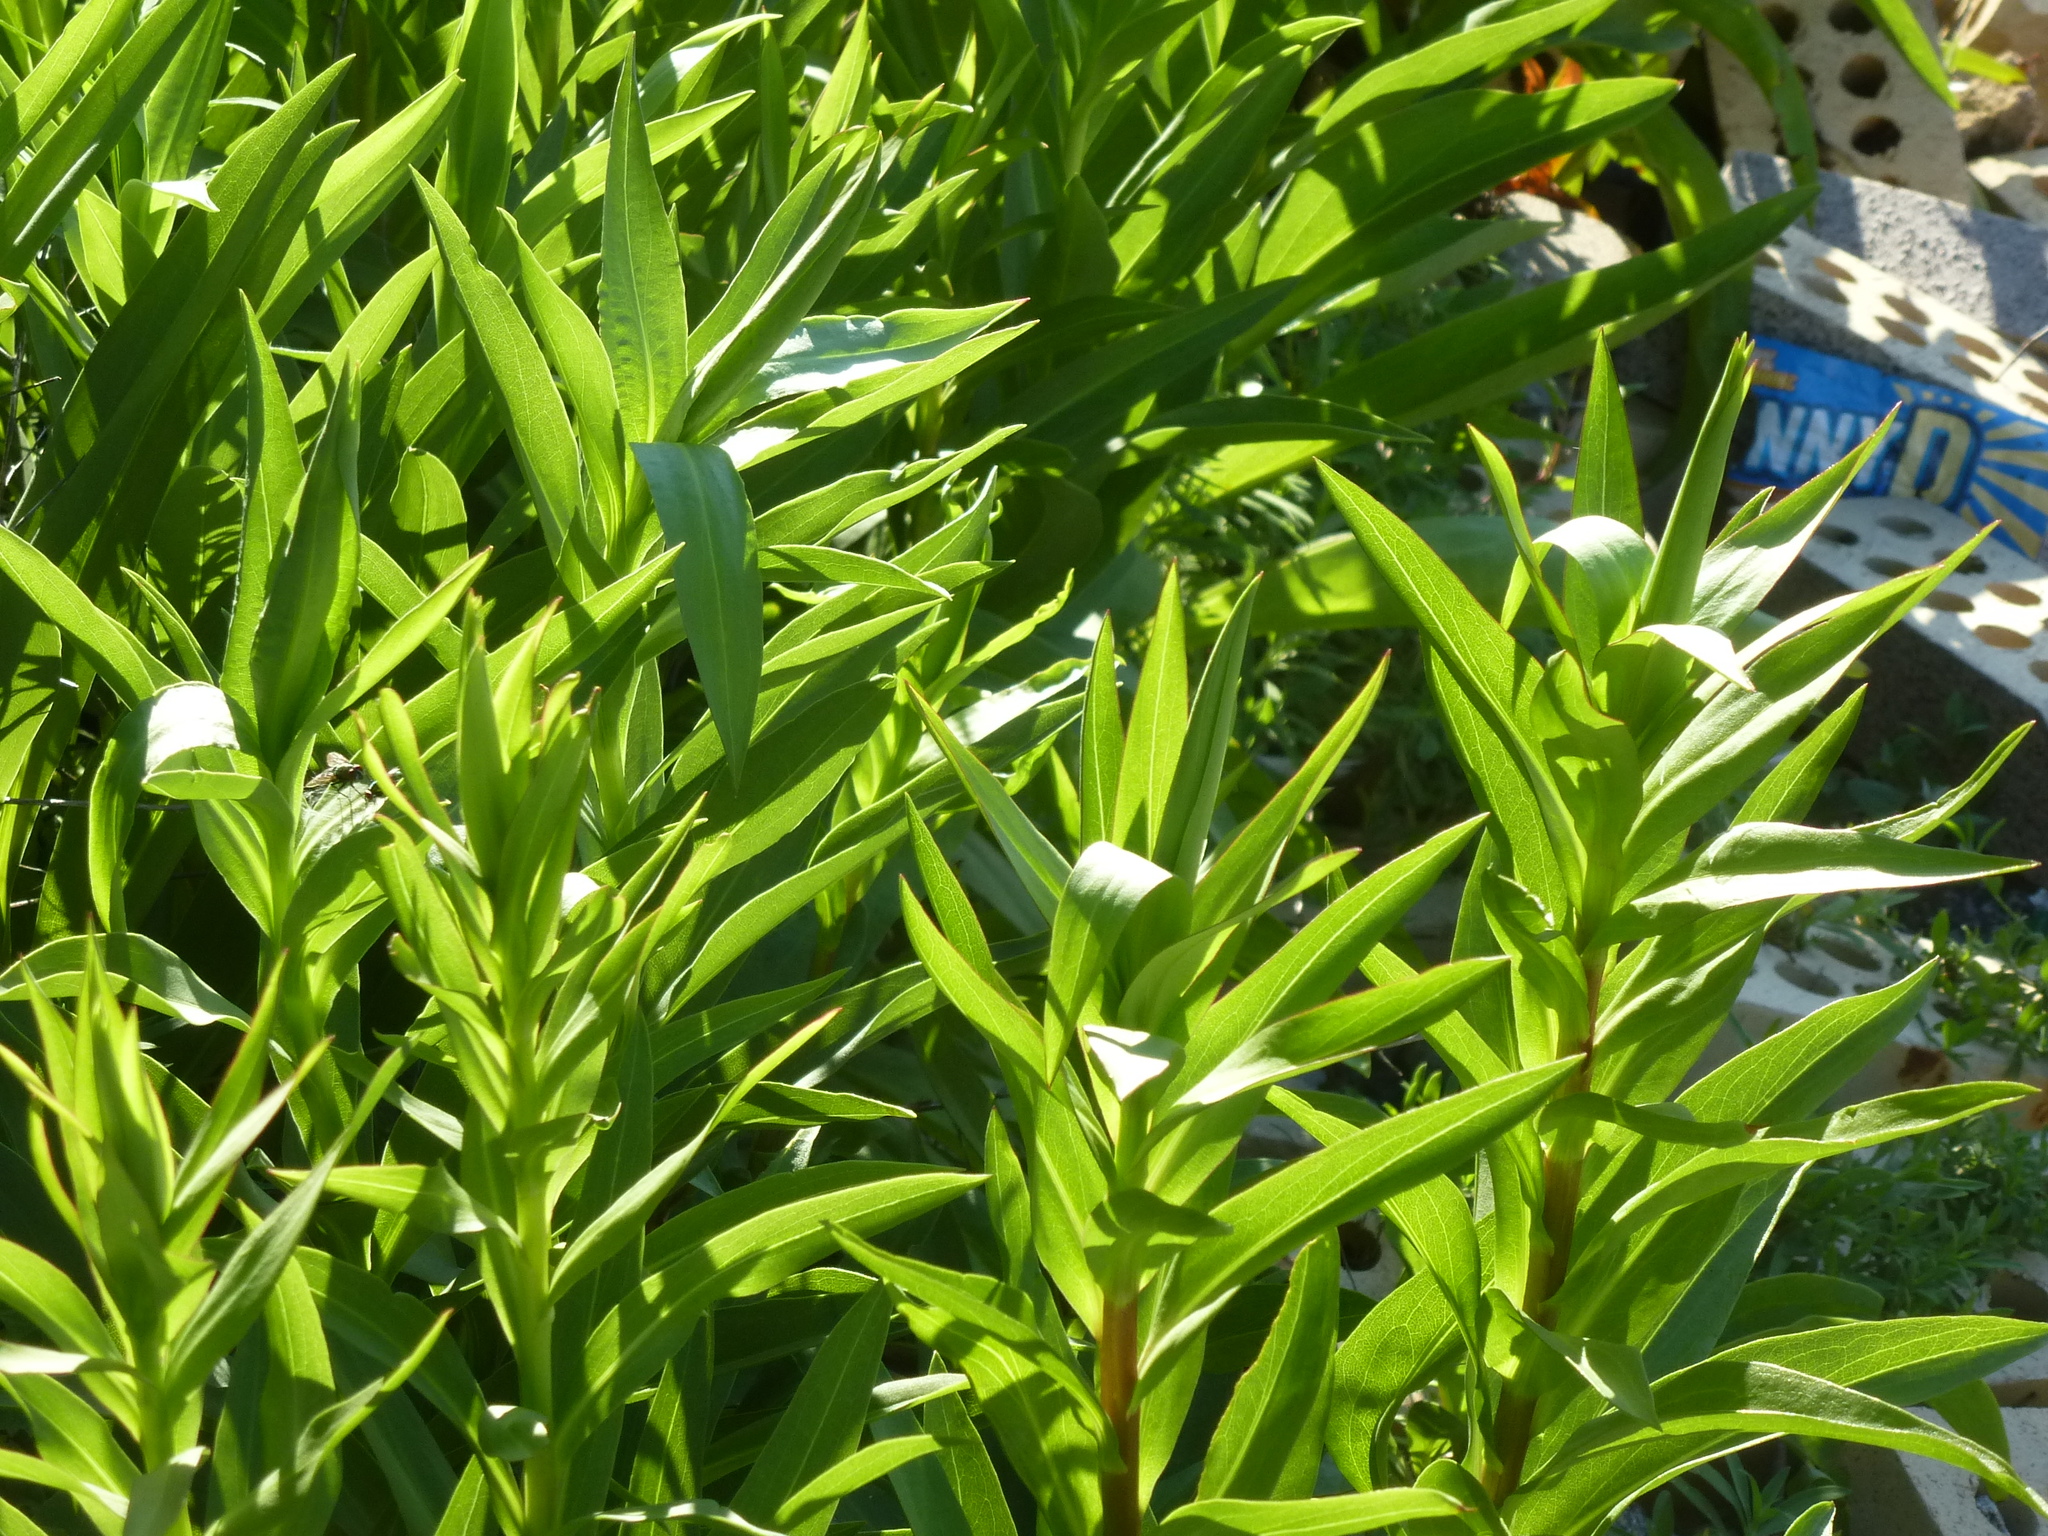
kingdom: Plantae
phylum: Tracheophyta
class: Magnoliopsida
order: Asterales
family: Asteraceae
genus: Solidago
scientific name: Solidago sempervirens
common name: Salt-marsh goldenrod
